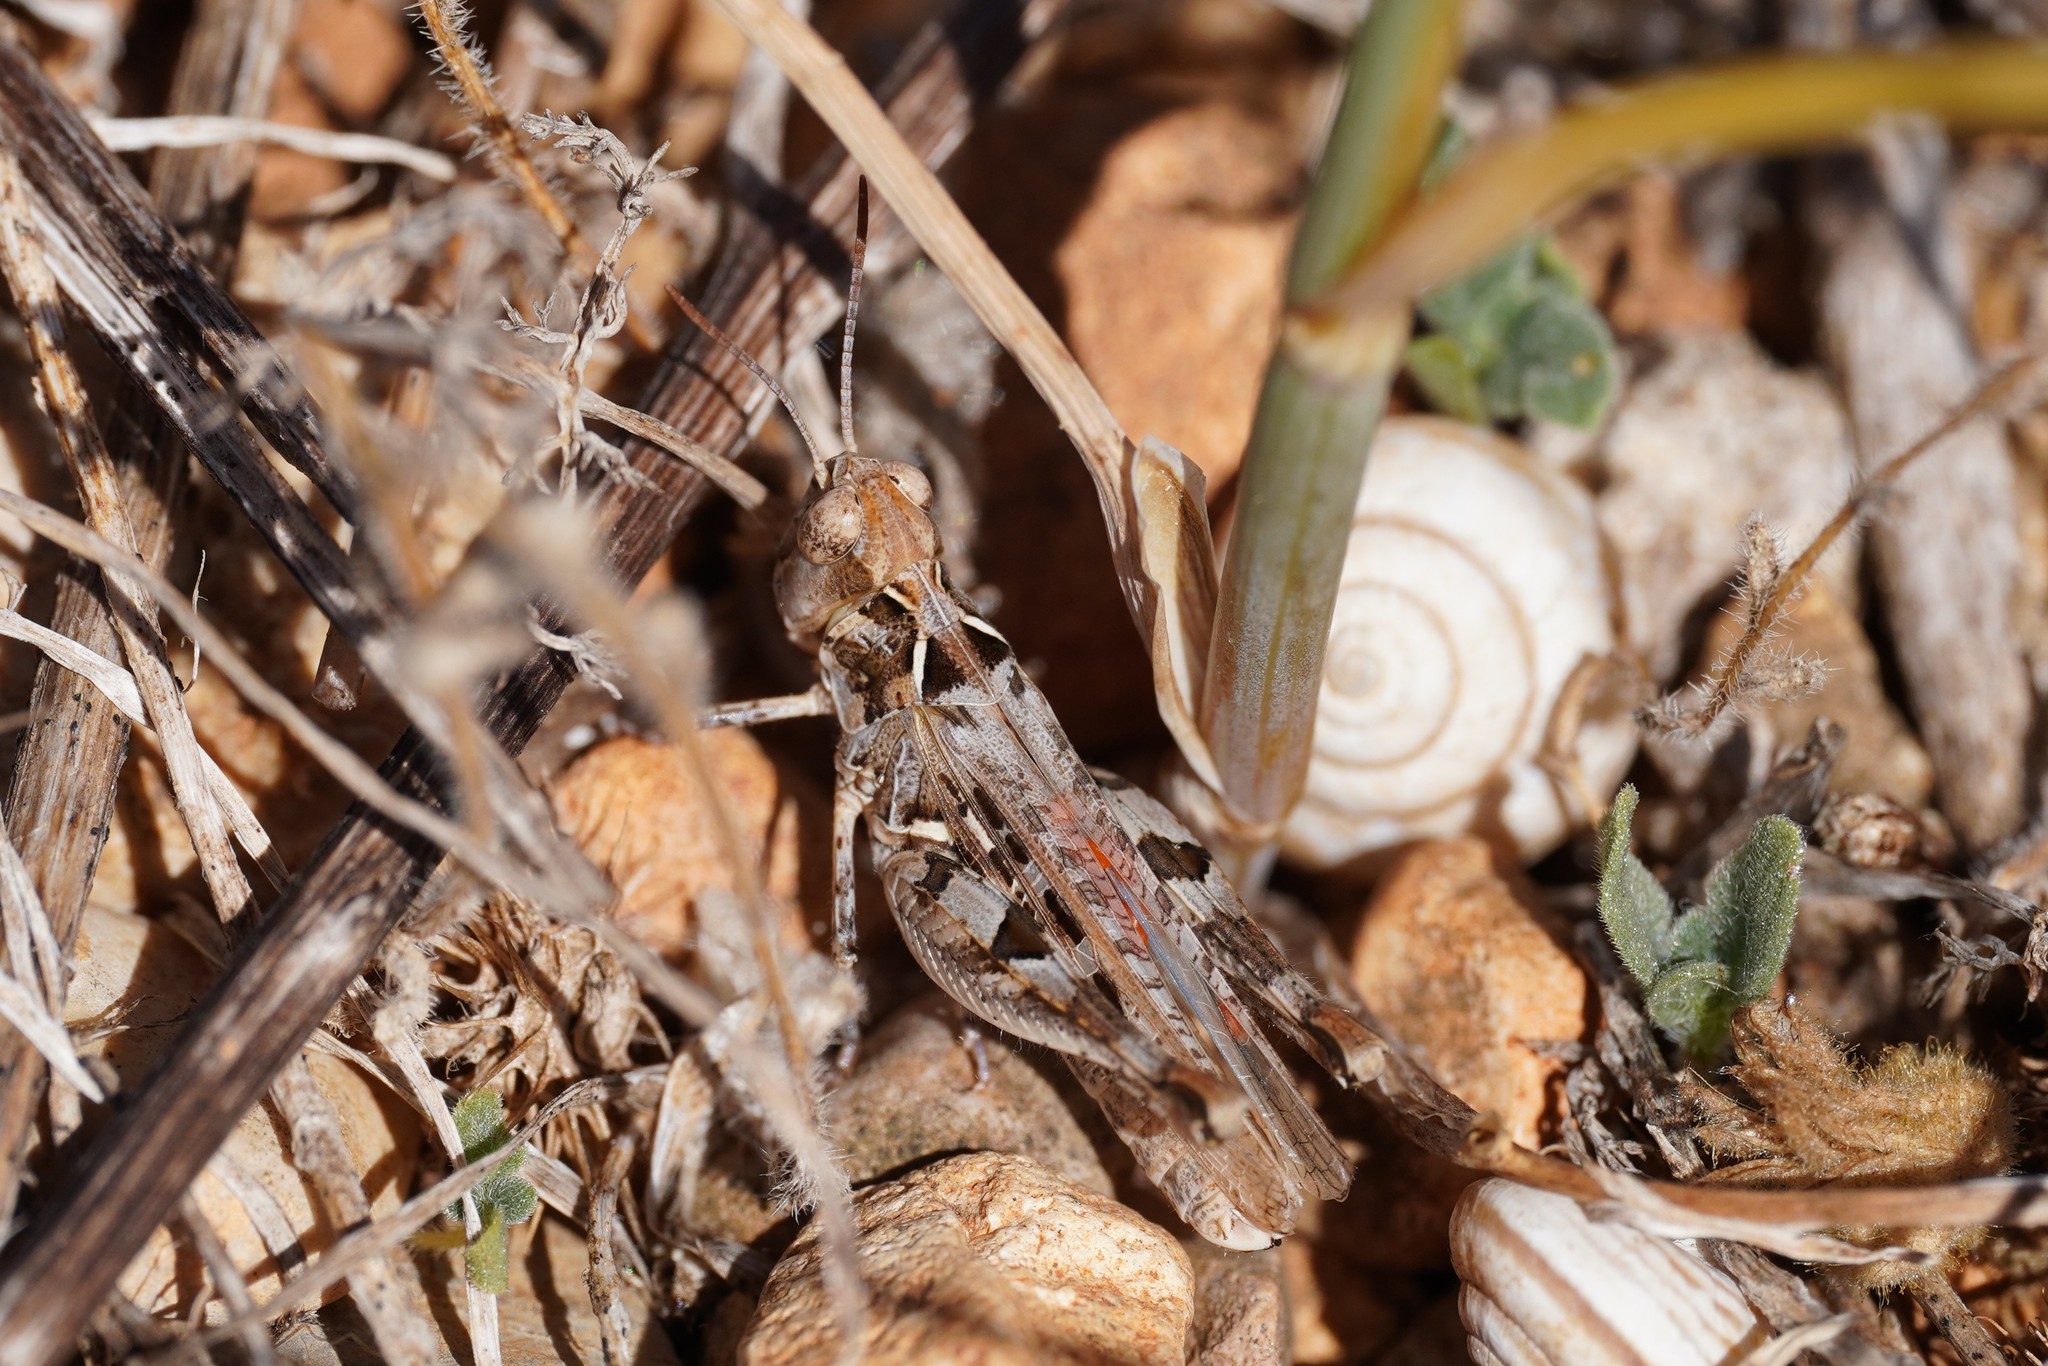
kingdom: Animalia
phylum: Arthropoda
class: Insecta
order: Orthoptera
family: Acrididae
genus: Dociostaurus
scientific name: Dociostaurus jagoi
